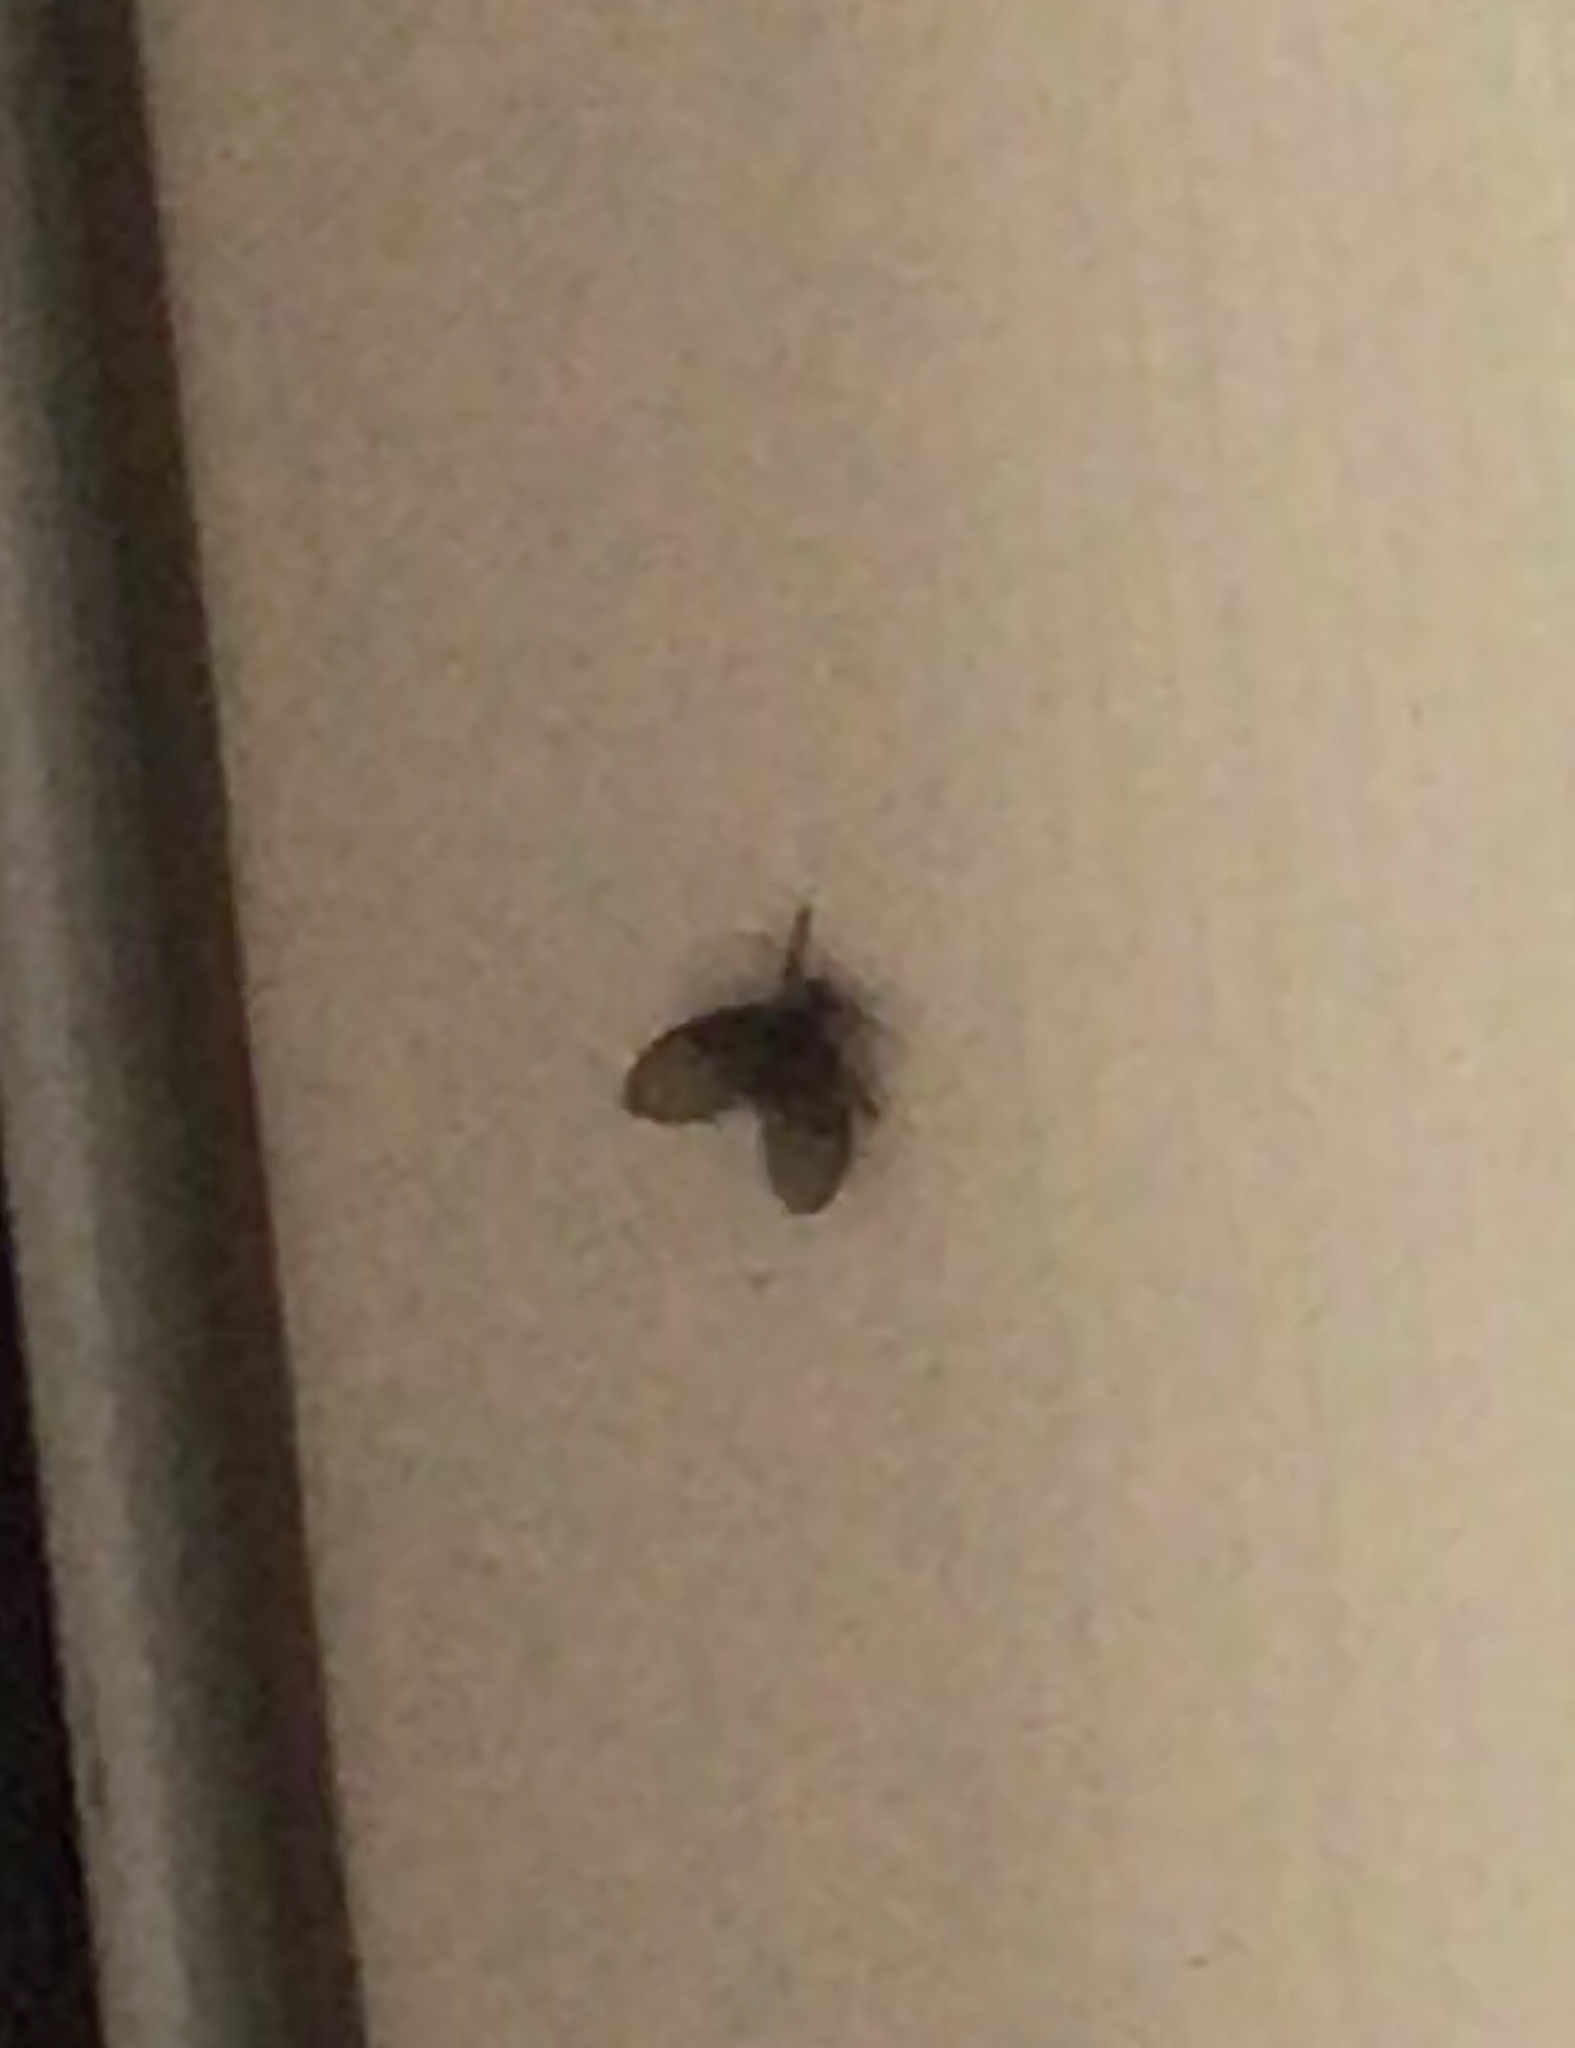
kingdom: Animalia
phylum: Arthropoda
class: Insecta
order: Diptera
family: Psychodidae
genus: Clogmia
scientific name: Clogmia albipunctatus
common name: White-spotted moth fly
